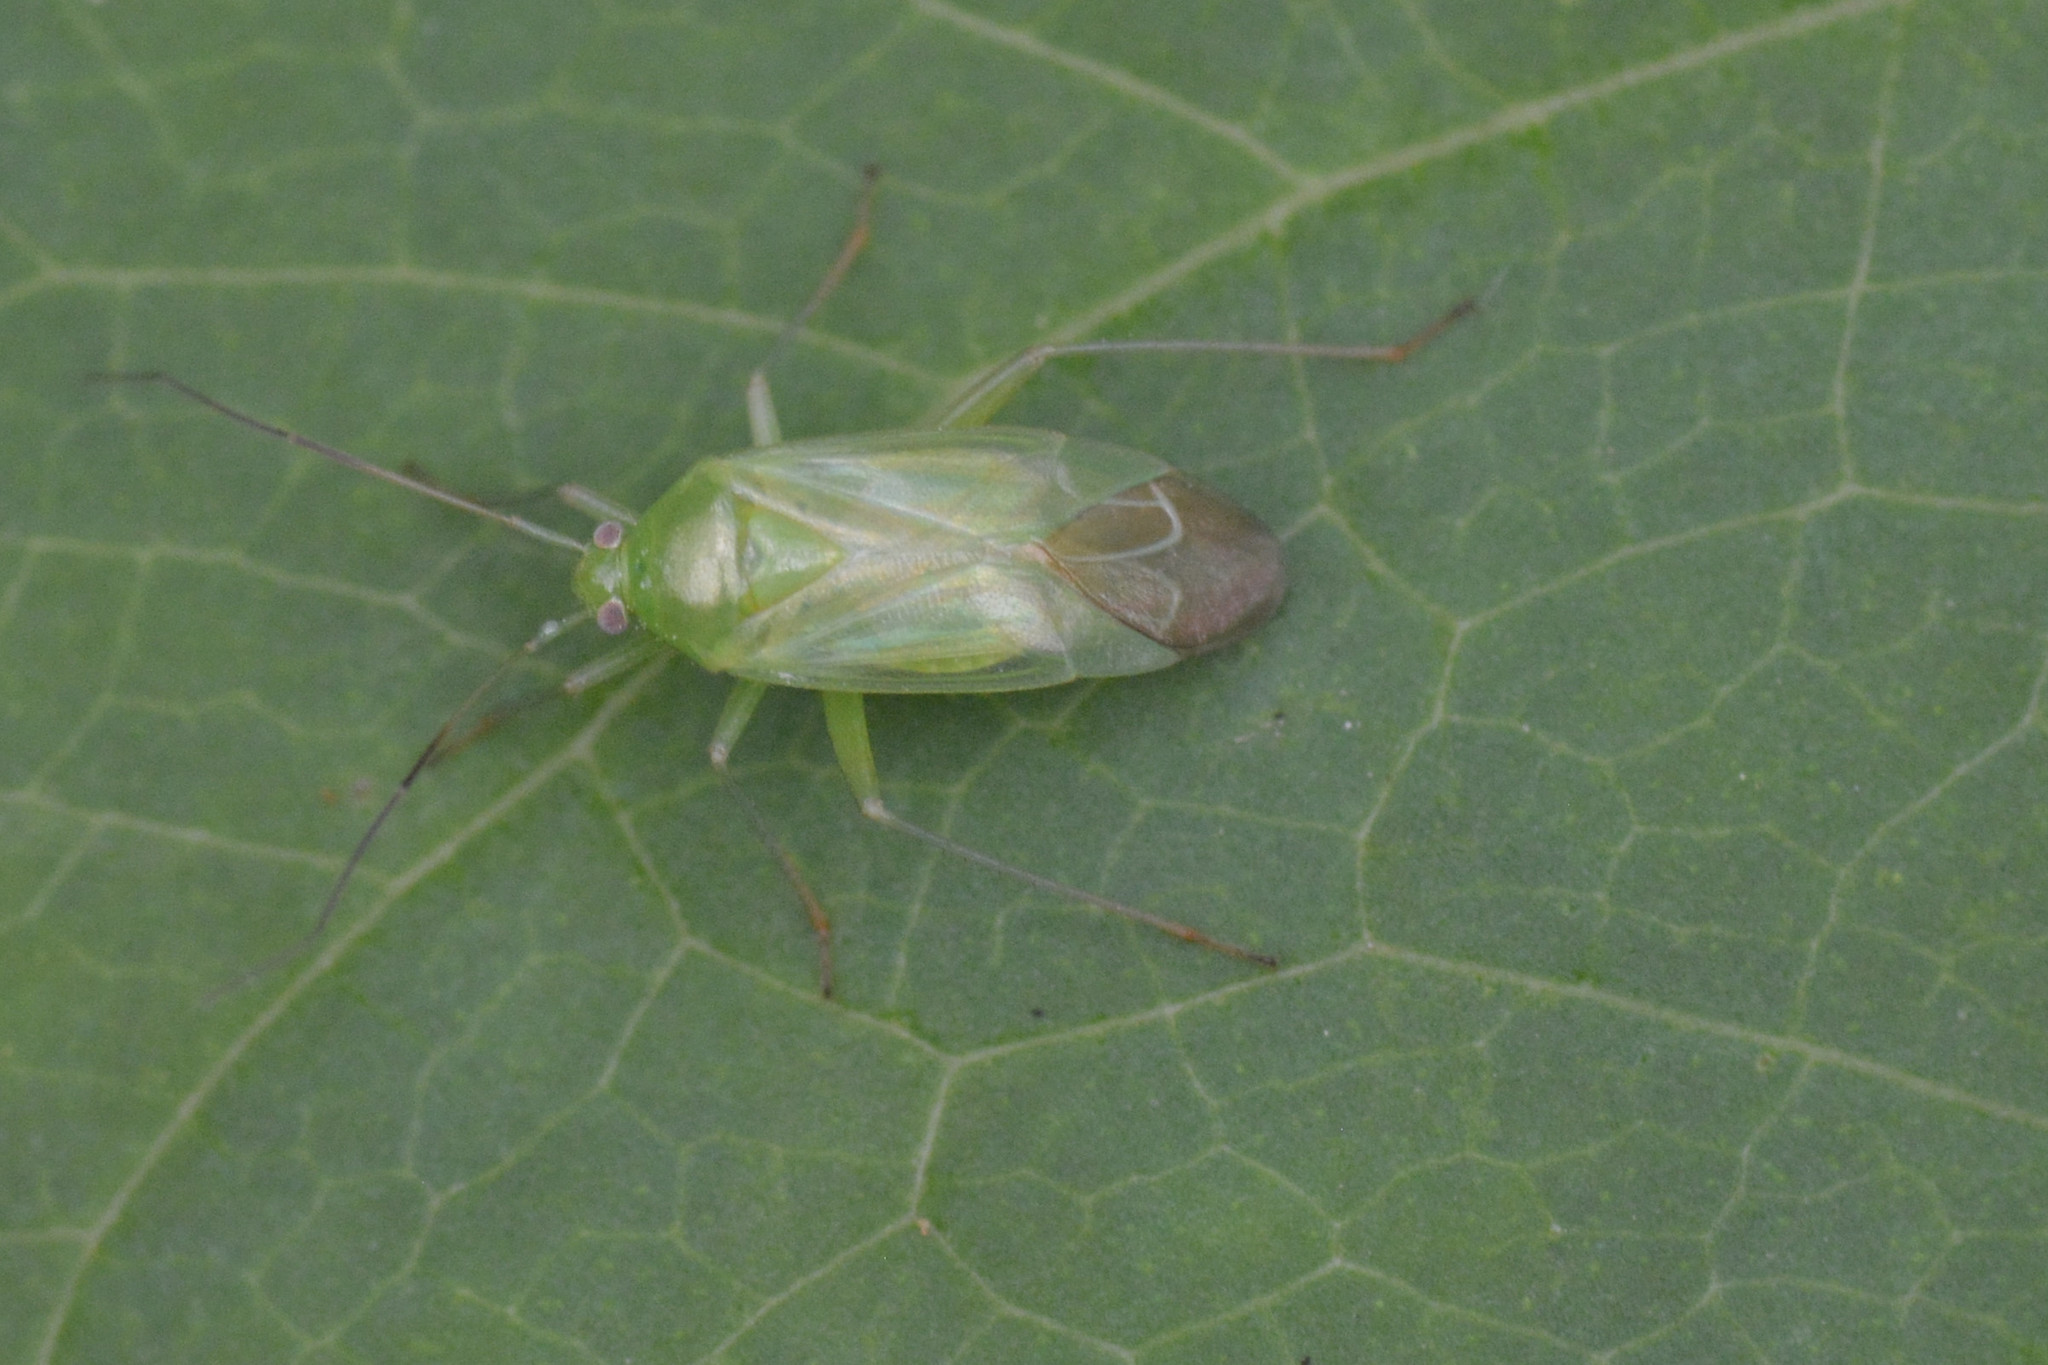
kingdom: Animalia
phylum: Arthropoda
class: Insecta
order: Hemiptera
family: Miridae
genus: Lygocoris
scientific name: Lygocoris pabulinus
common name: Common green capsid
